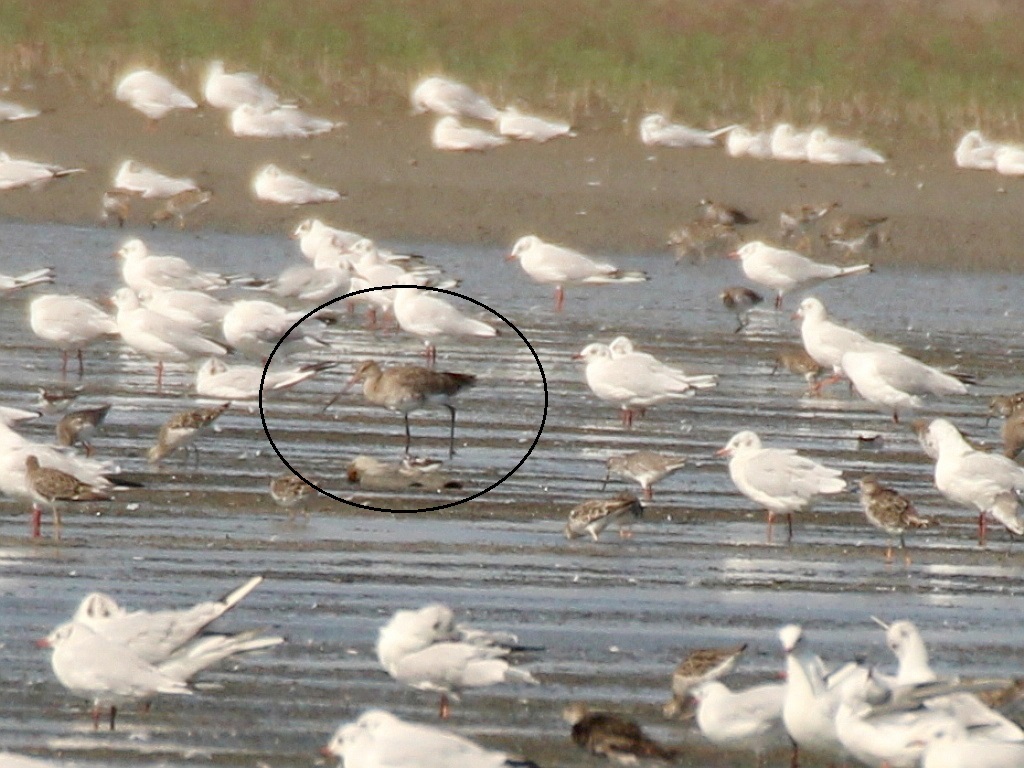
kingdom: Animalia
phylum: Chordata
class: Aves
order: Charadriiformes
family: Scolopacidae
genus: Limosa
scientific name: Limosa limosa
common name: Black-tailed godwit
